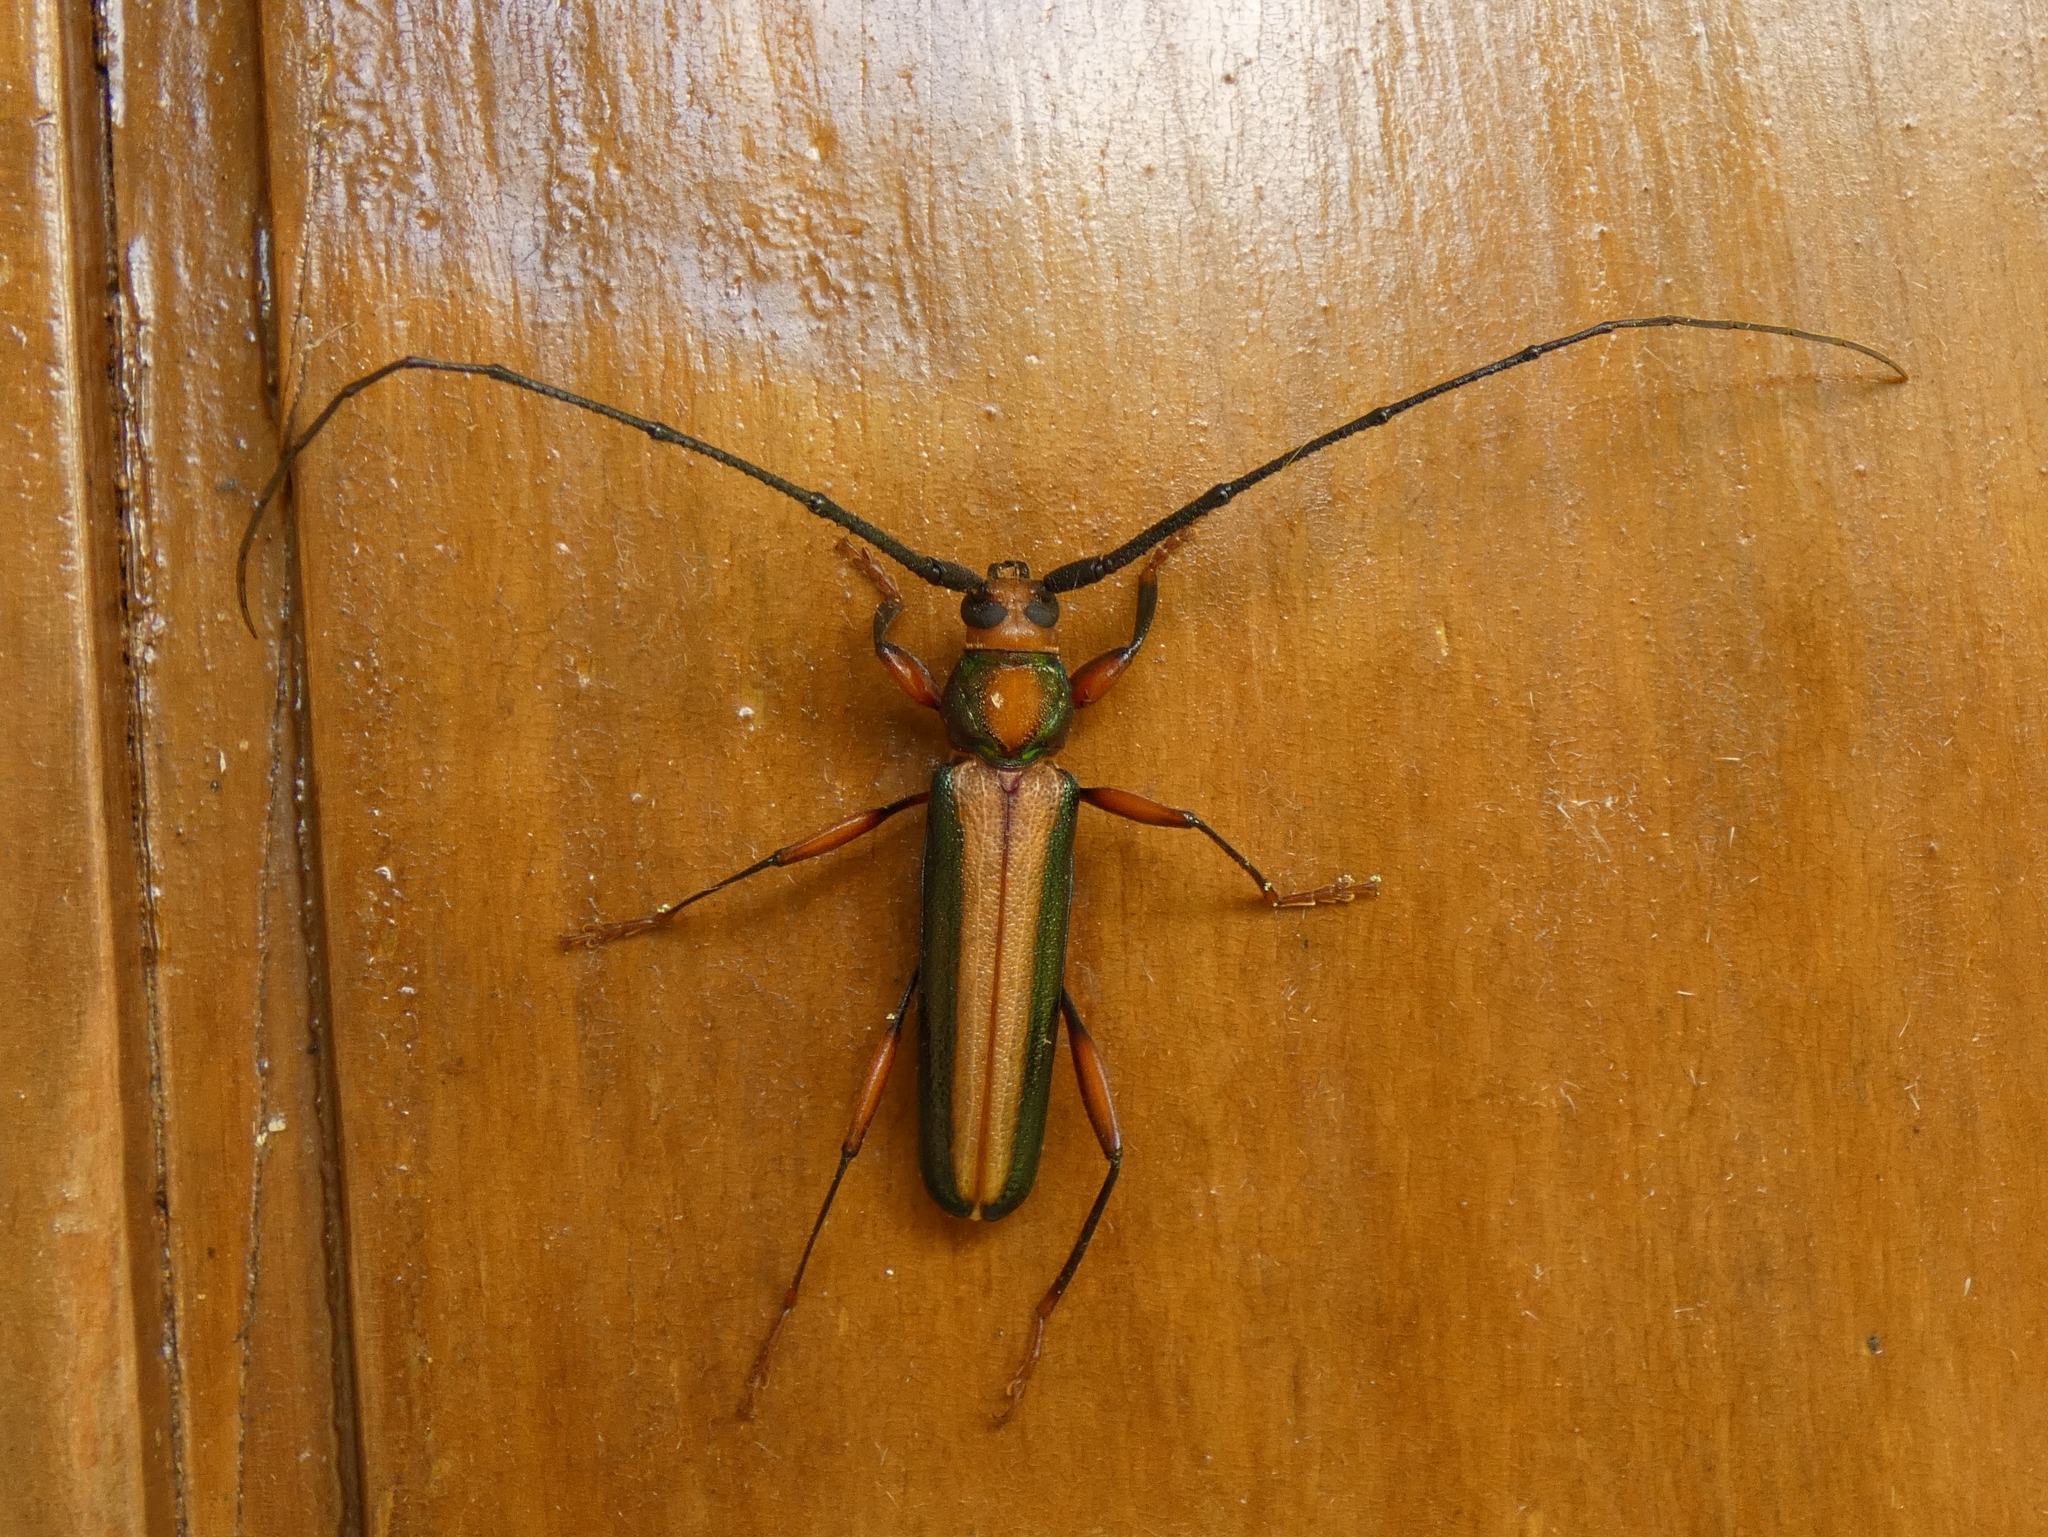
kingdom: Animalia
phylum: Arthropoda
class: Insecta
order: Coleoptera
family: Cerambycidae
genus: Xystrocera
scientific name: Xystrocera festiva
